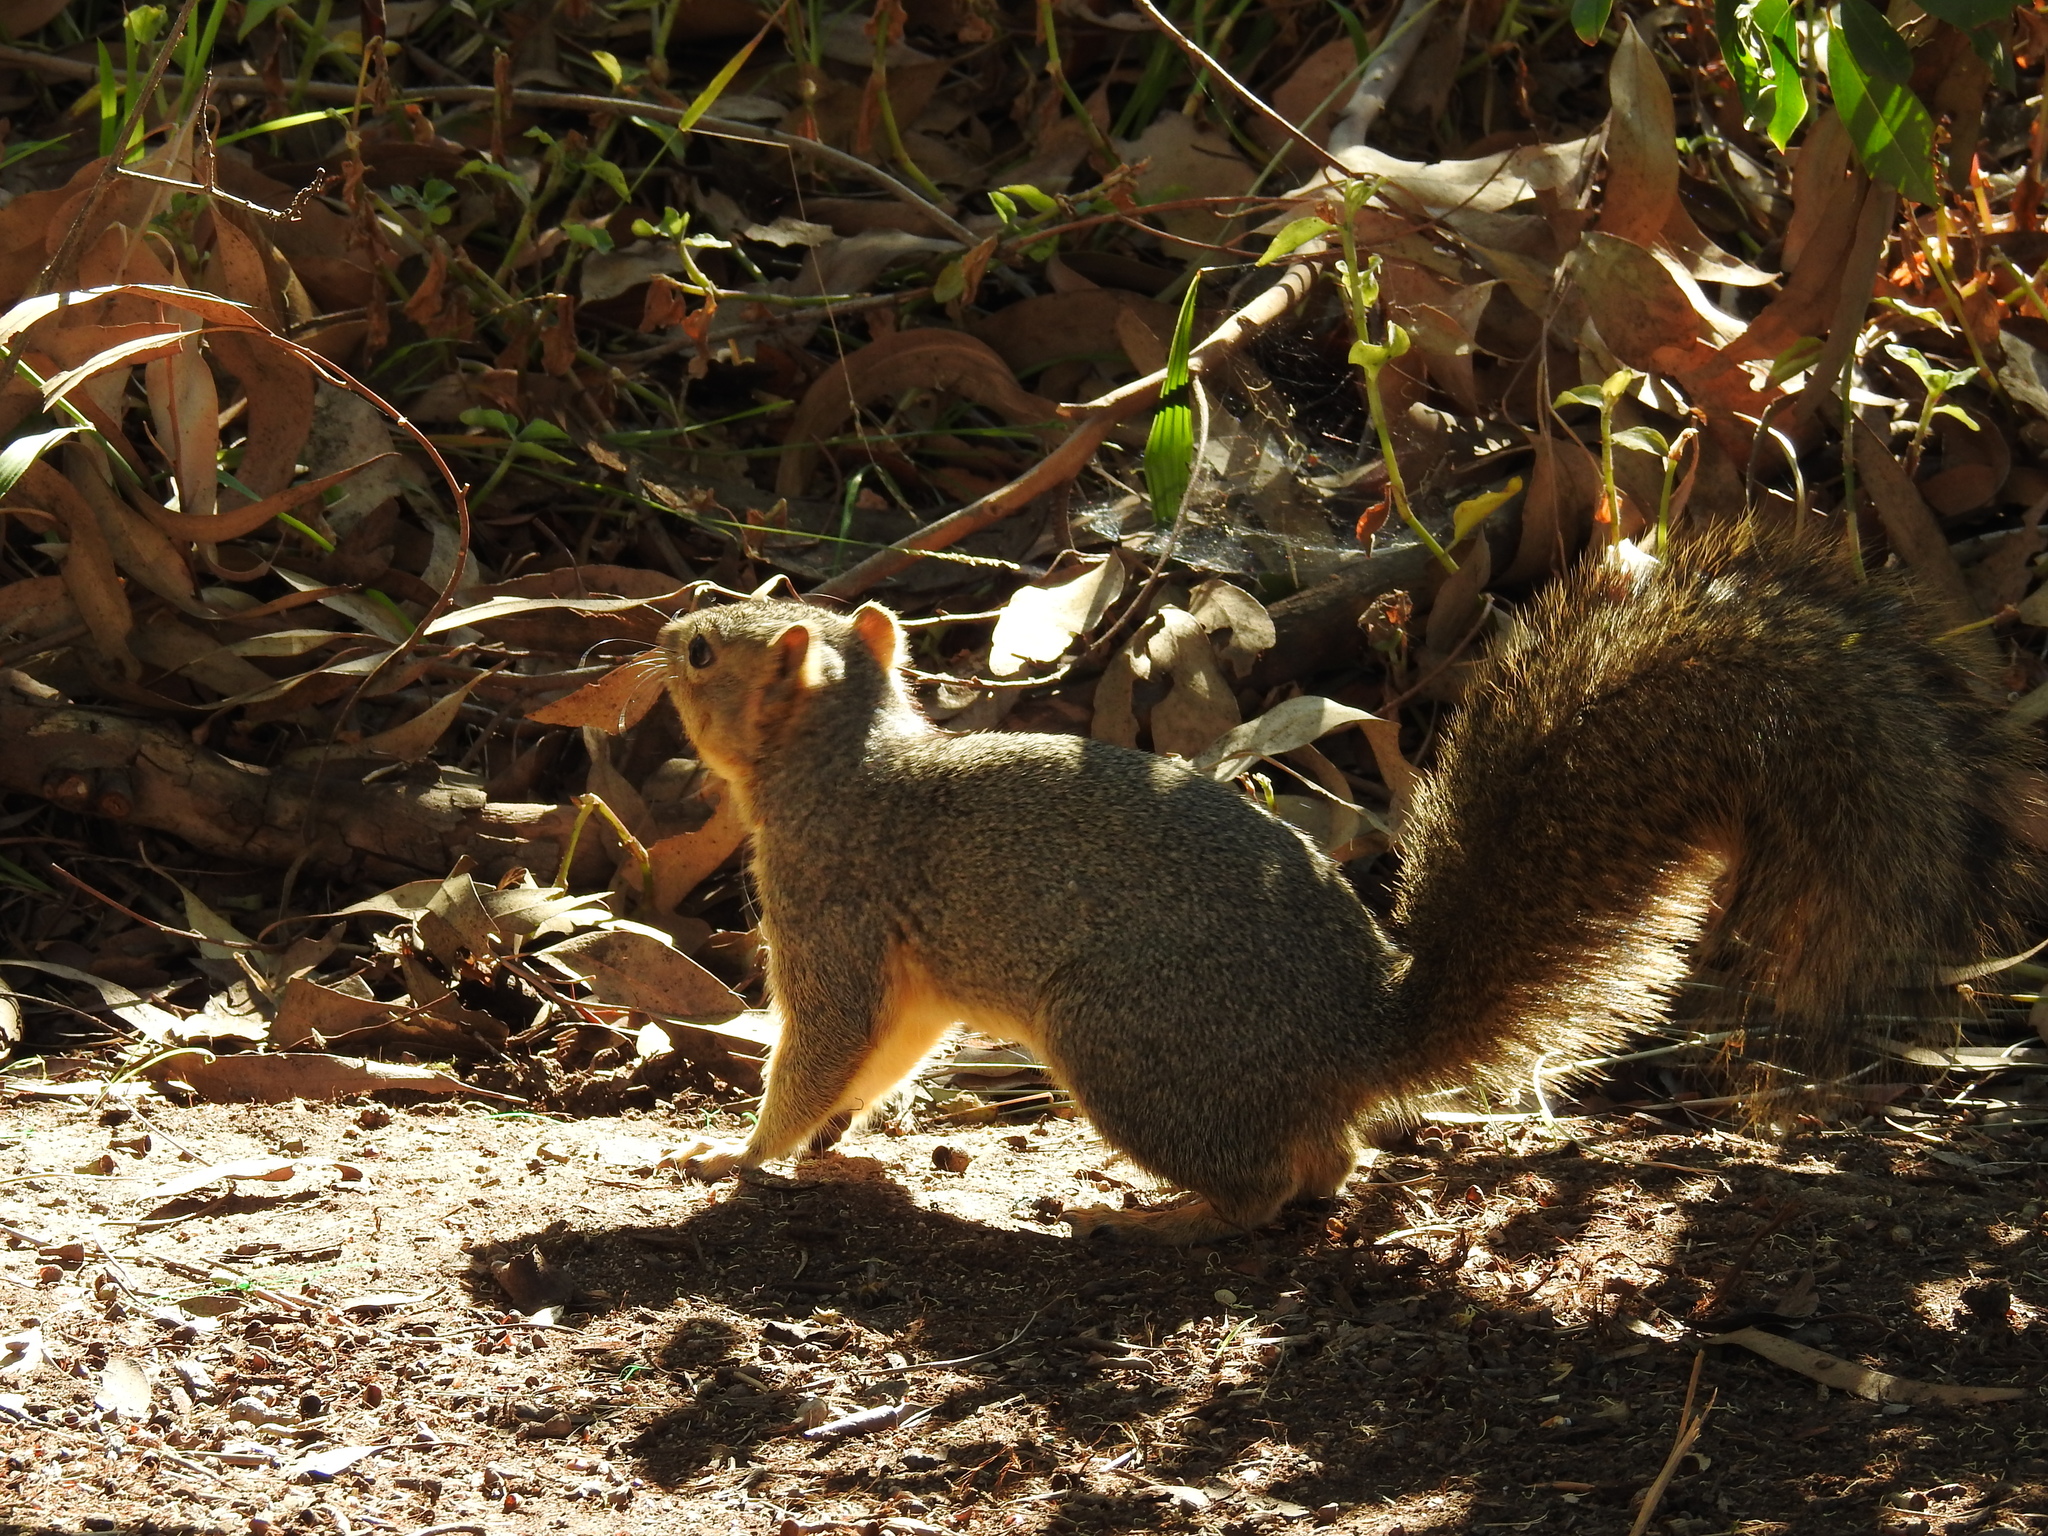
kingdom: Animalia
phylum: Chordata
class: Mammalia
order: Rodentia
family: Sciuridae
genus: Sciurus
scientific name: Sciurus niger
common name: Fox squirrel
